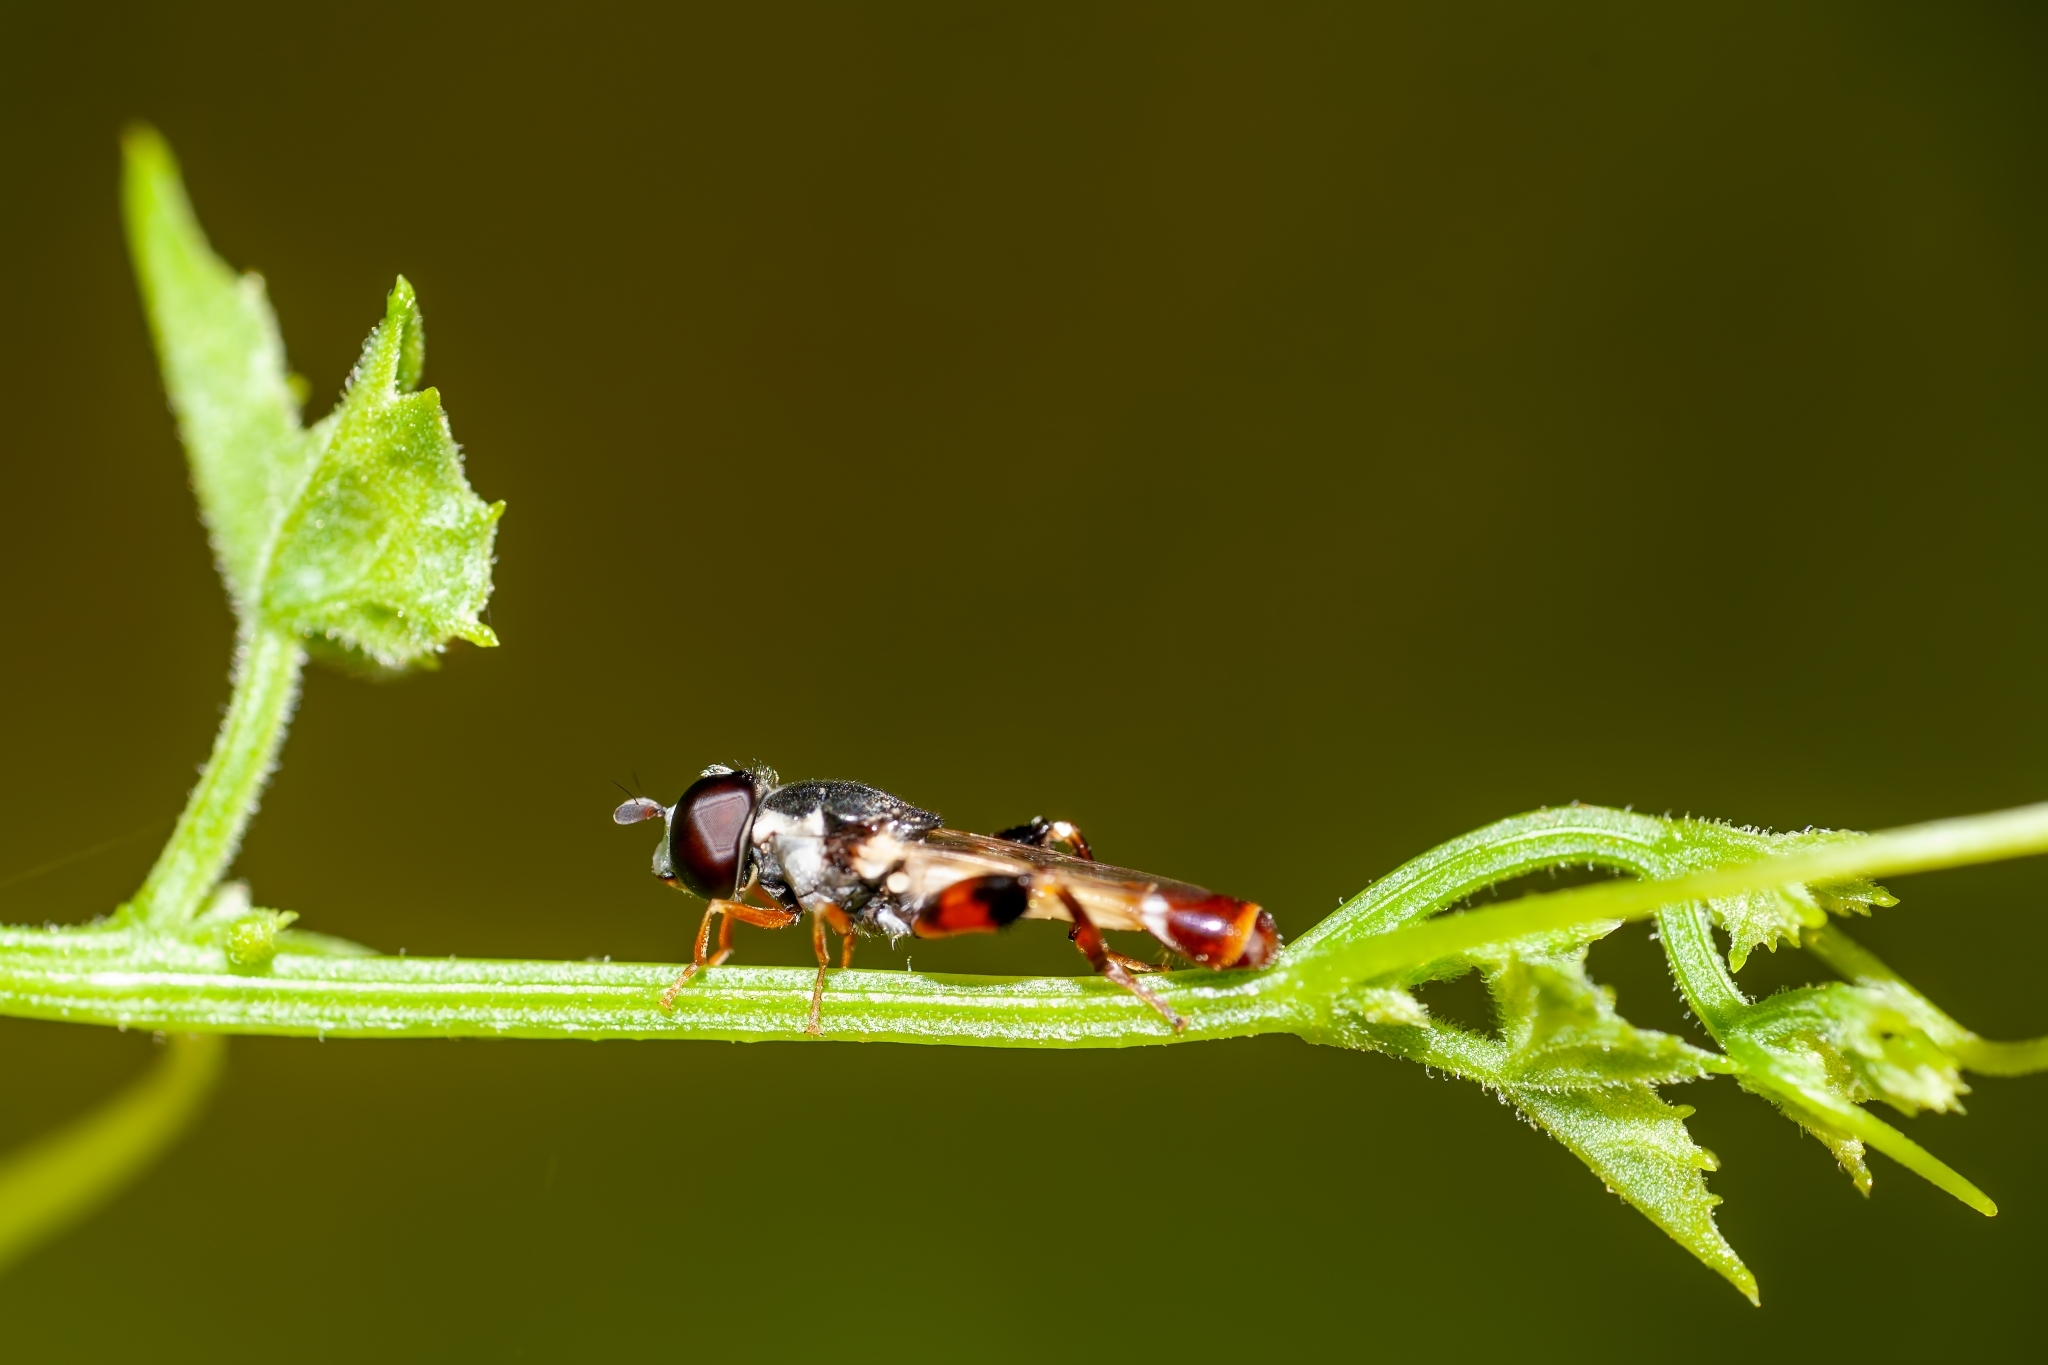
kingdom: Animalia
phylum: Arthropoda
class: Insecta
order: Diptera
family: Syrphidae
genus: Syritta
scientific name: Syritta flaviventris
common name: Syrphid fly
